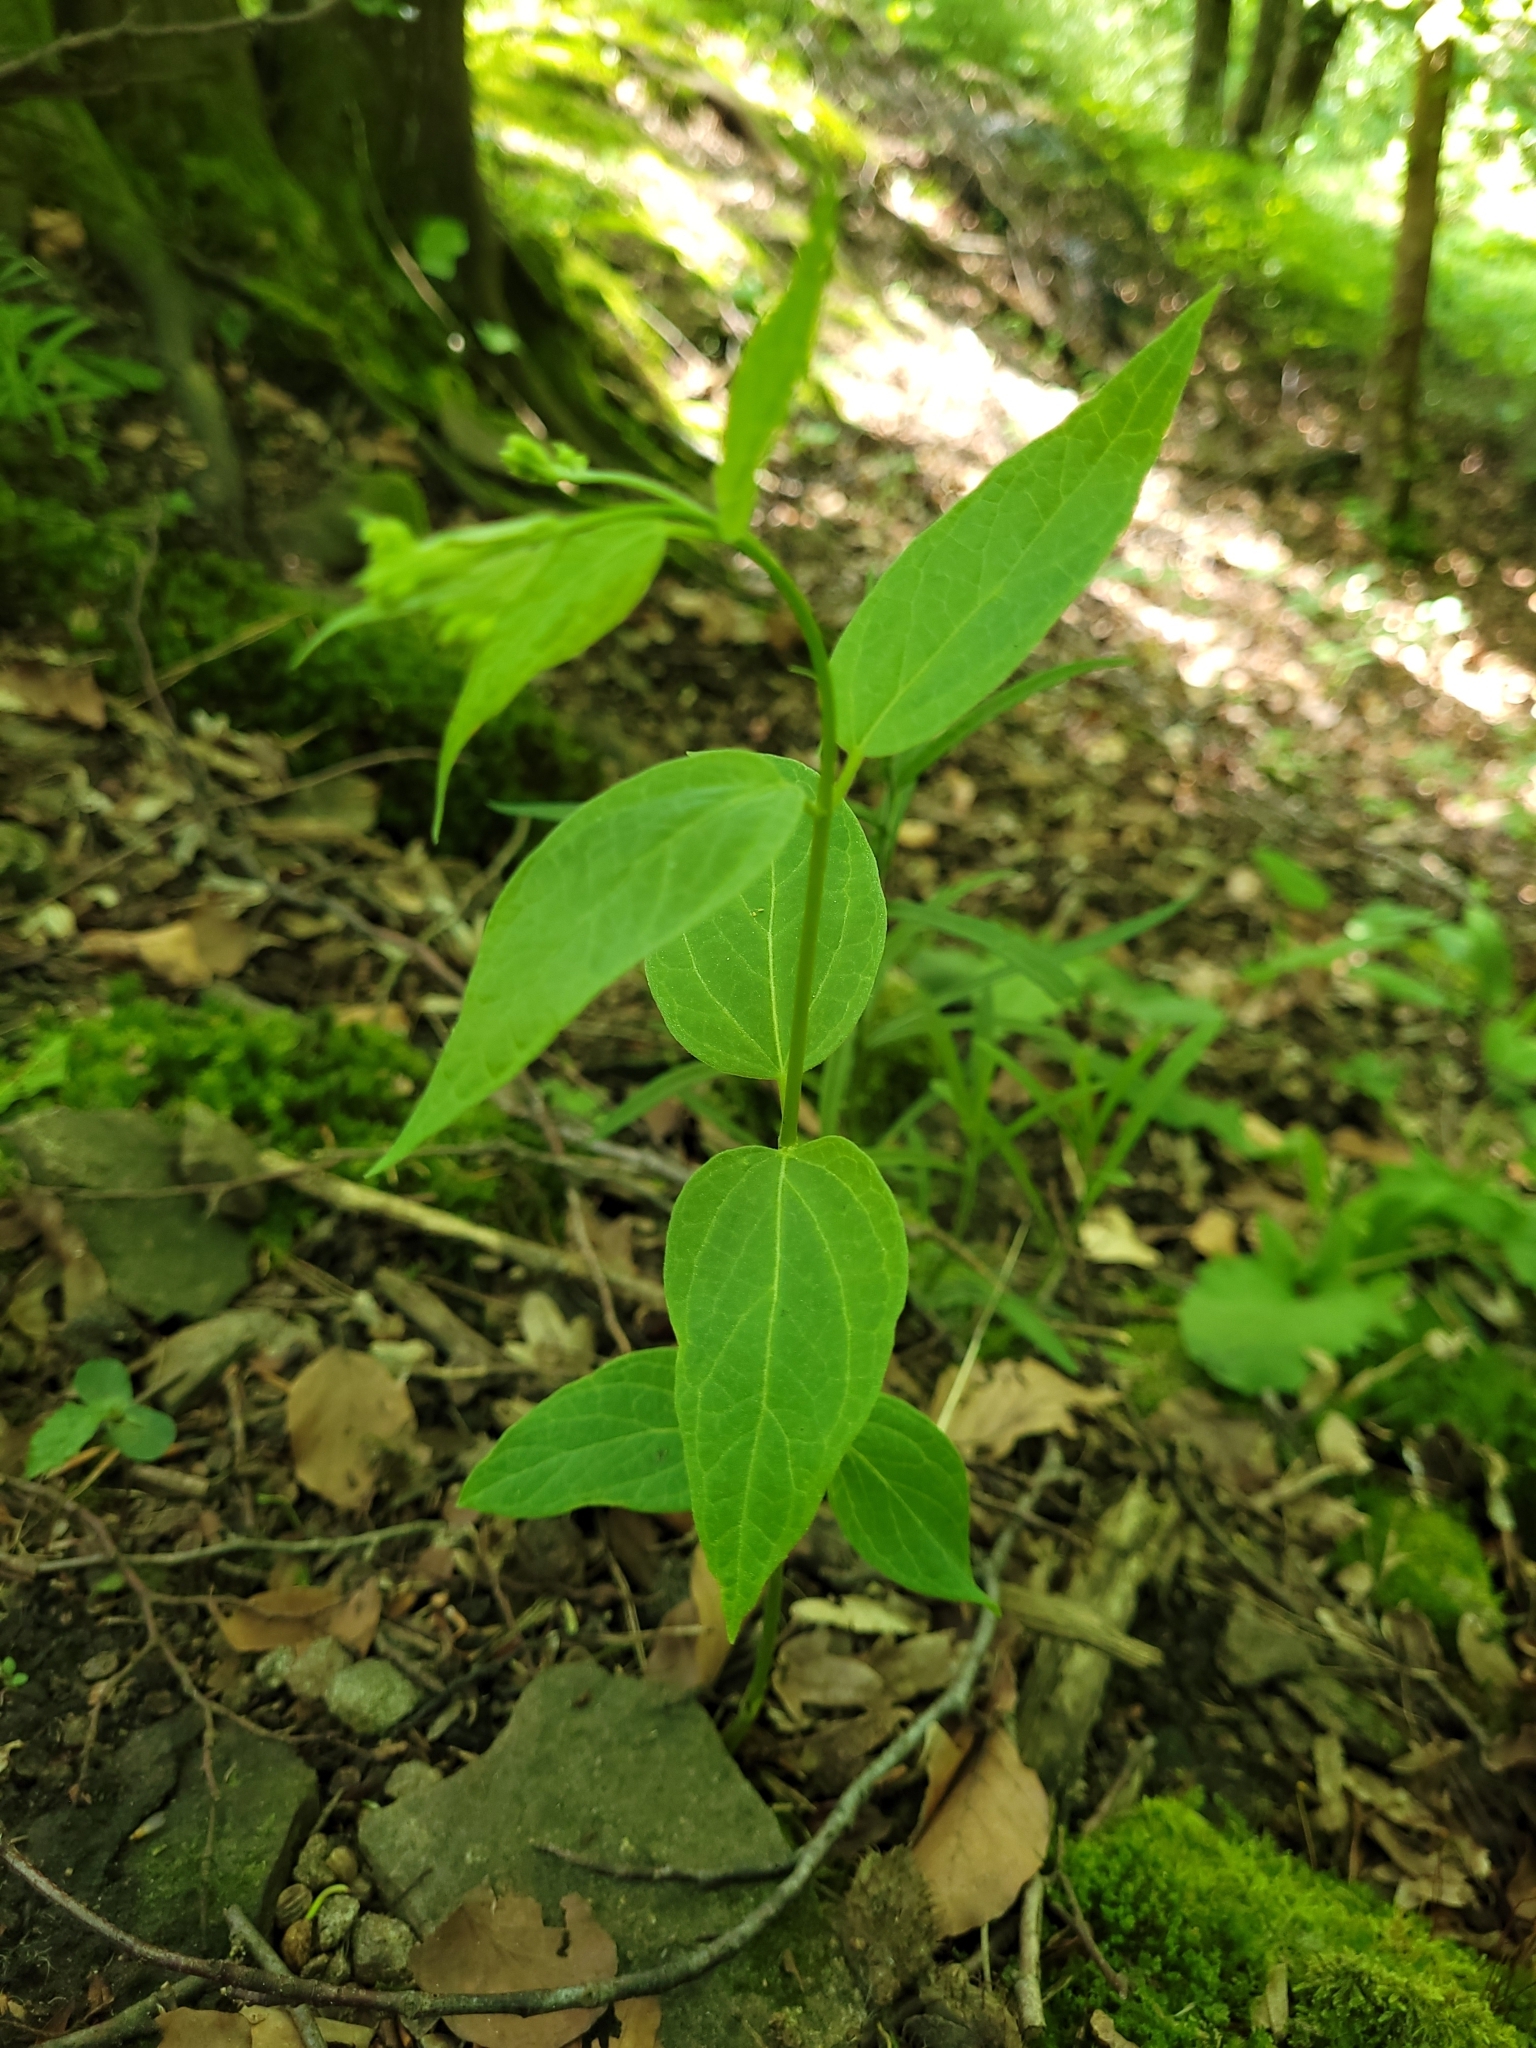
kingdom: Plantae
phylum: Tracheophyta
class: Magnoliopsida
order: Gentianales
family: Apocynaceae
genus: Vincetoxicum
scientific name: Vincetoxicum hirundinaria
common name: White swallowwort
